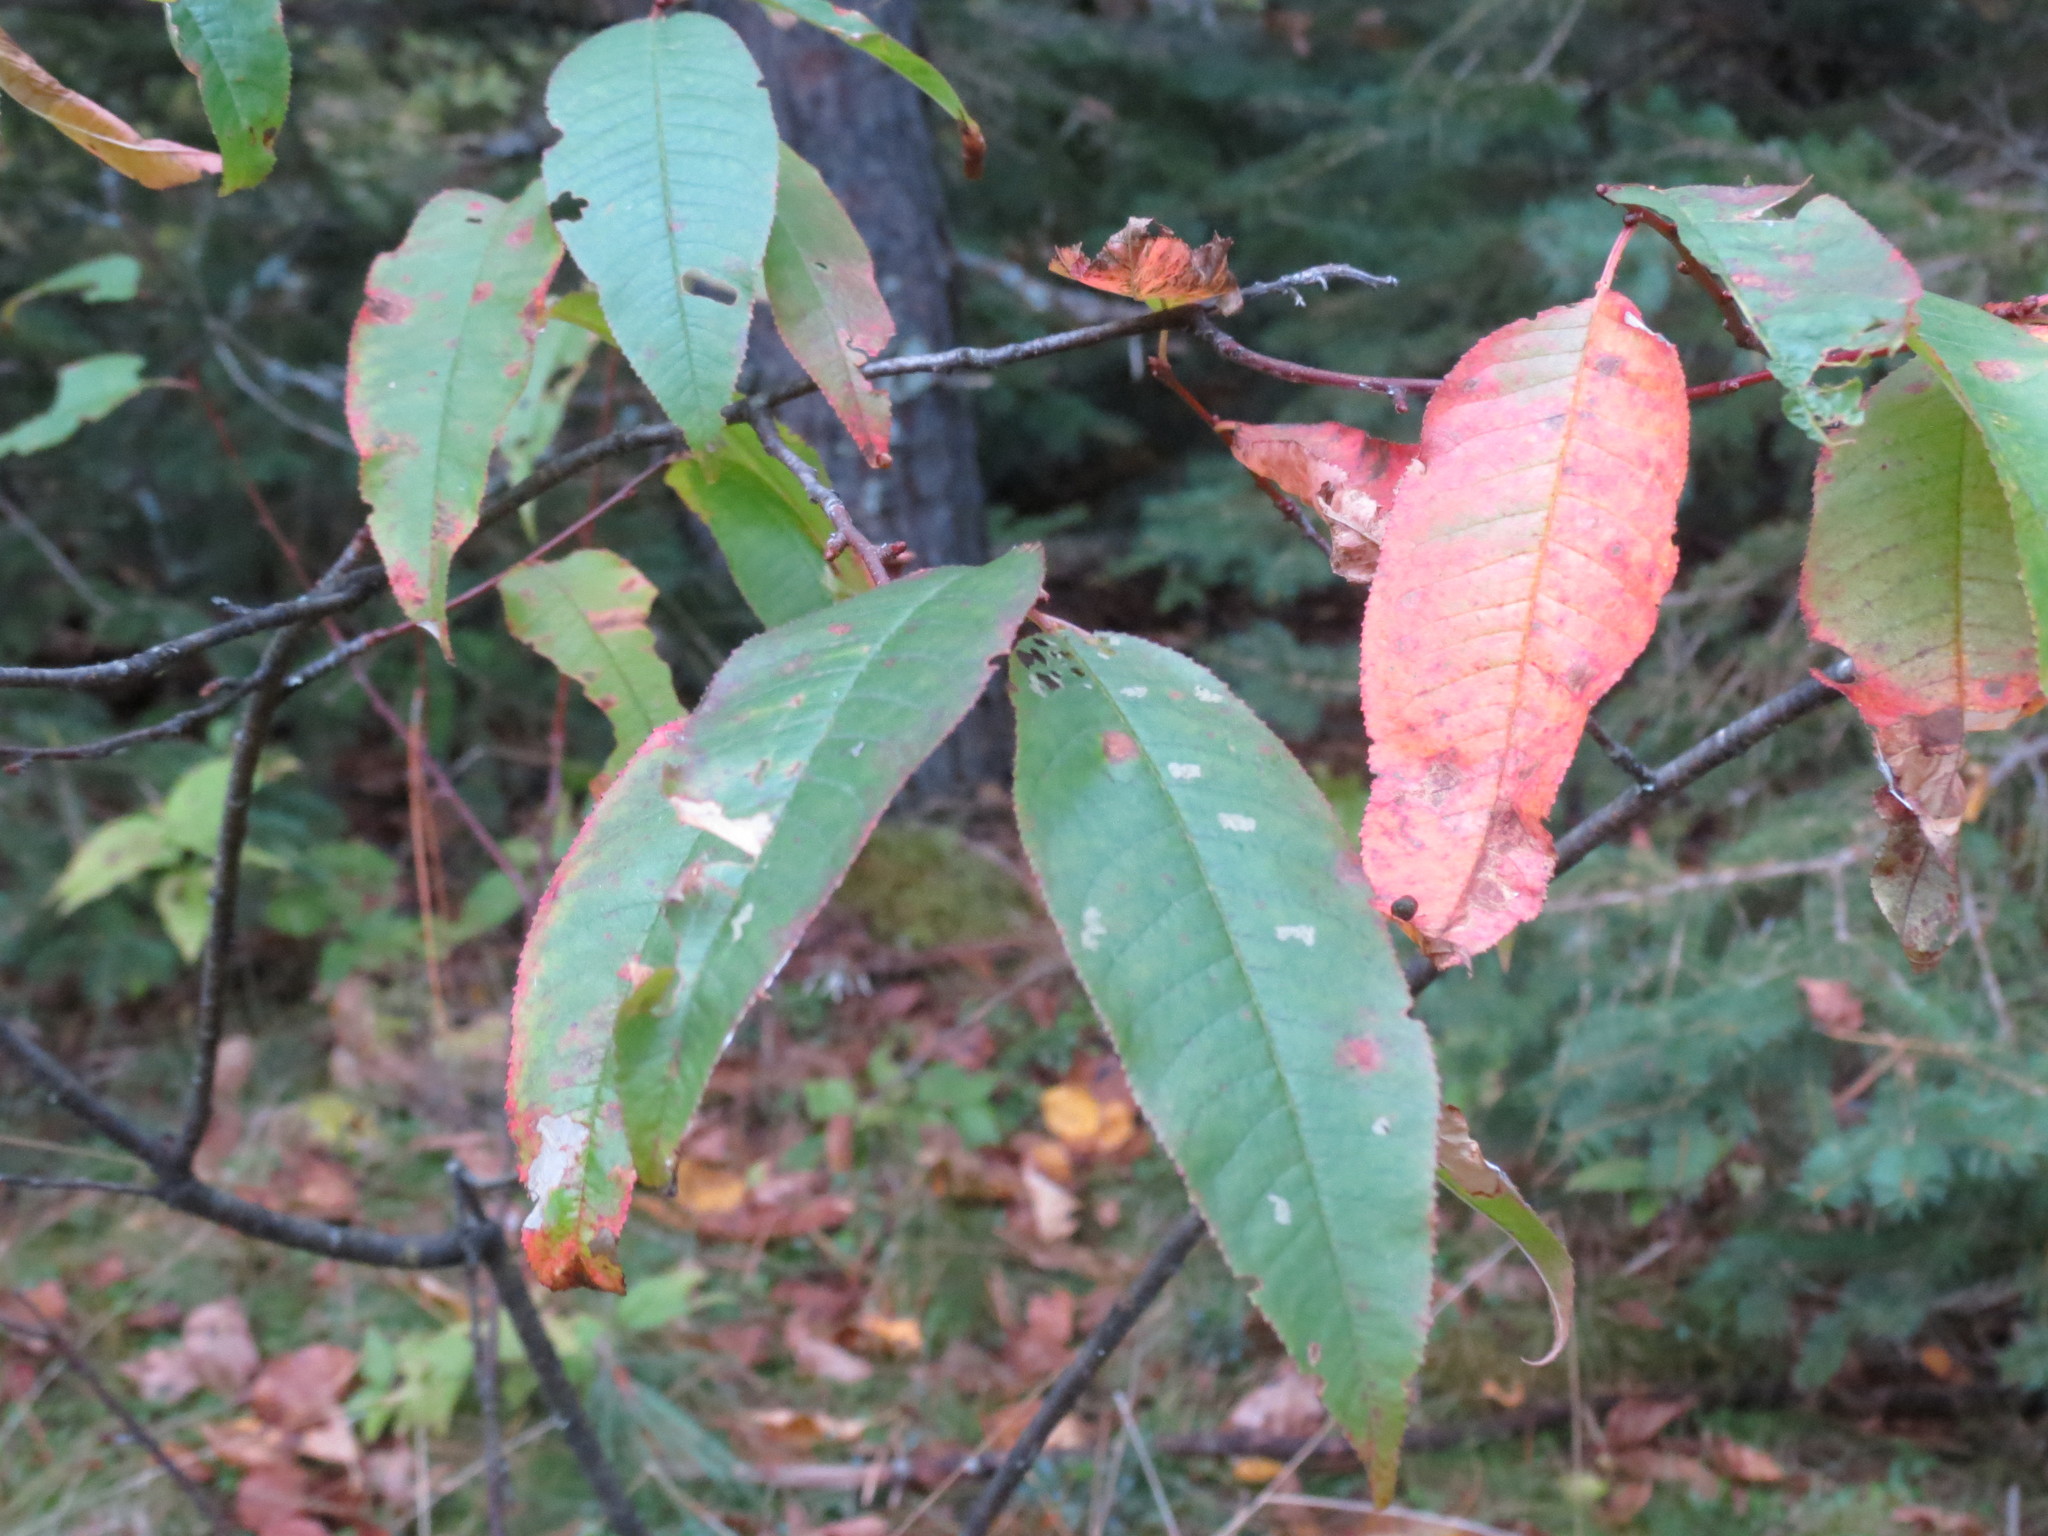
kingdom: Plantae
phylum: Tracheophyta
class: Magnoliopsida
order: Rosales
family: Rosaceae
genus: Prunus
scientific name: Prunus pensylvanica
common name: Pin cherry
